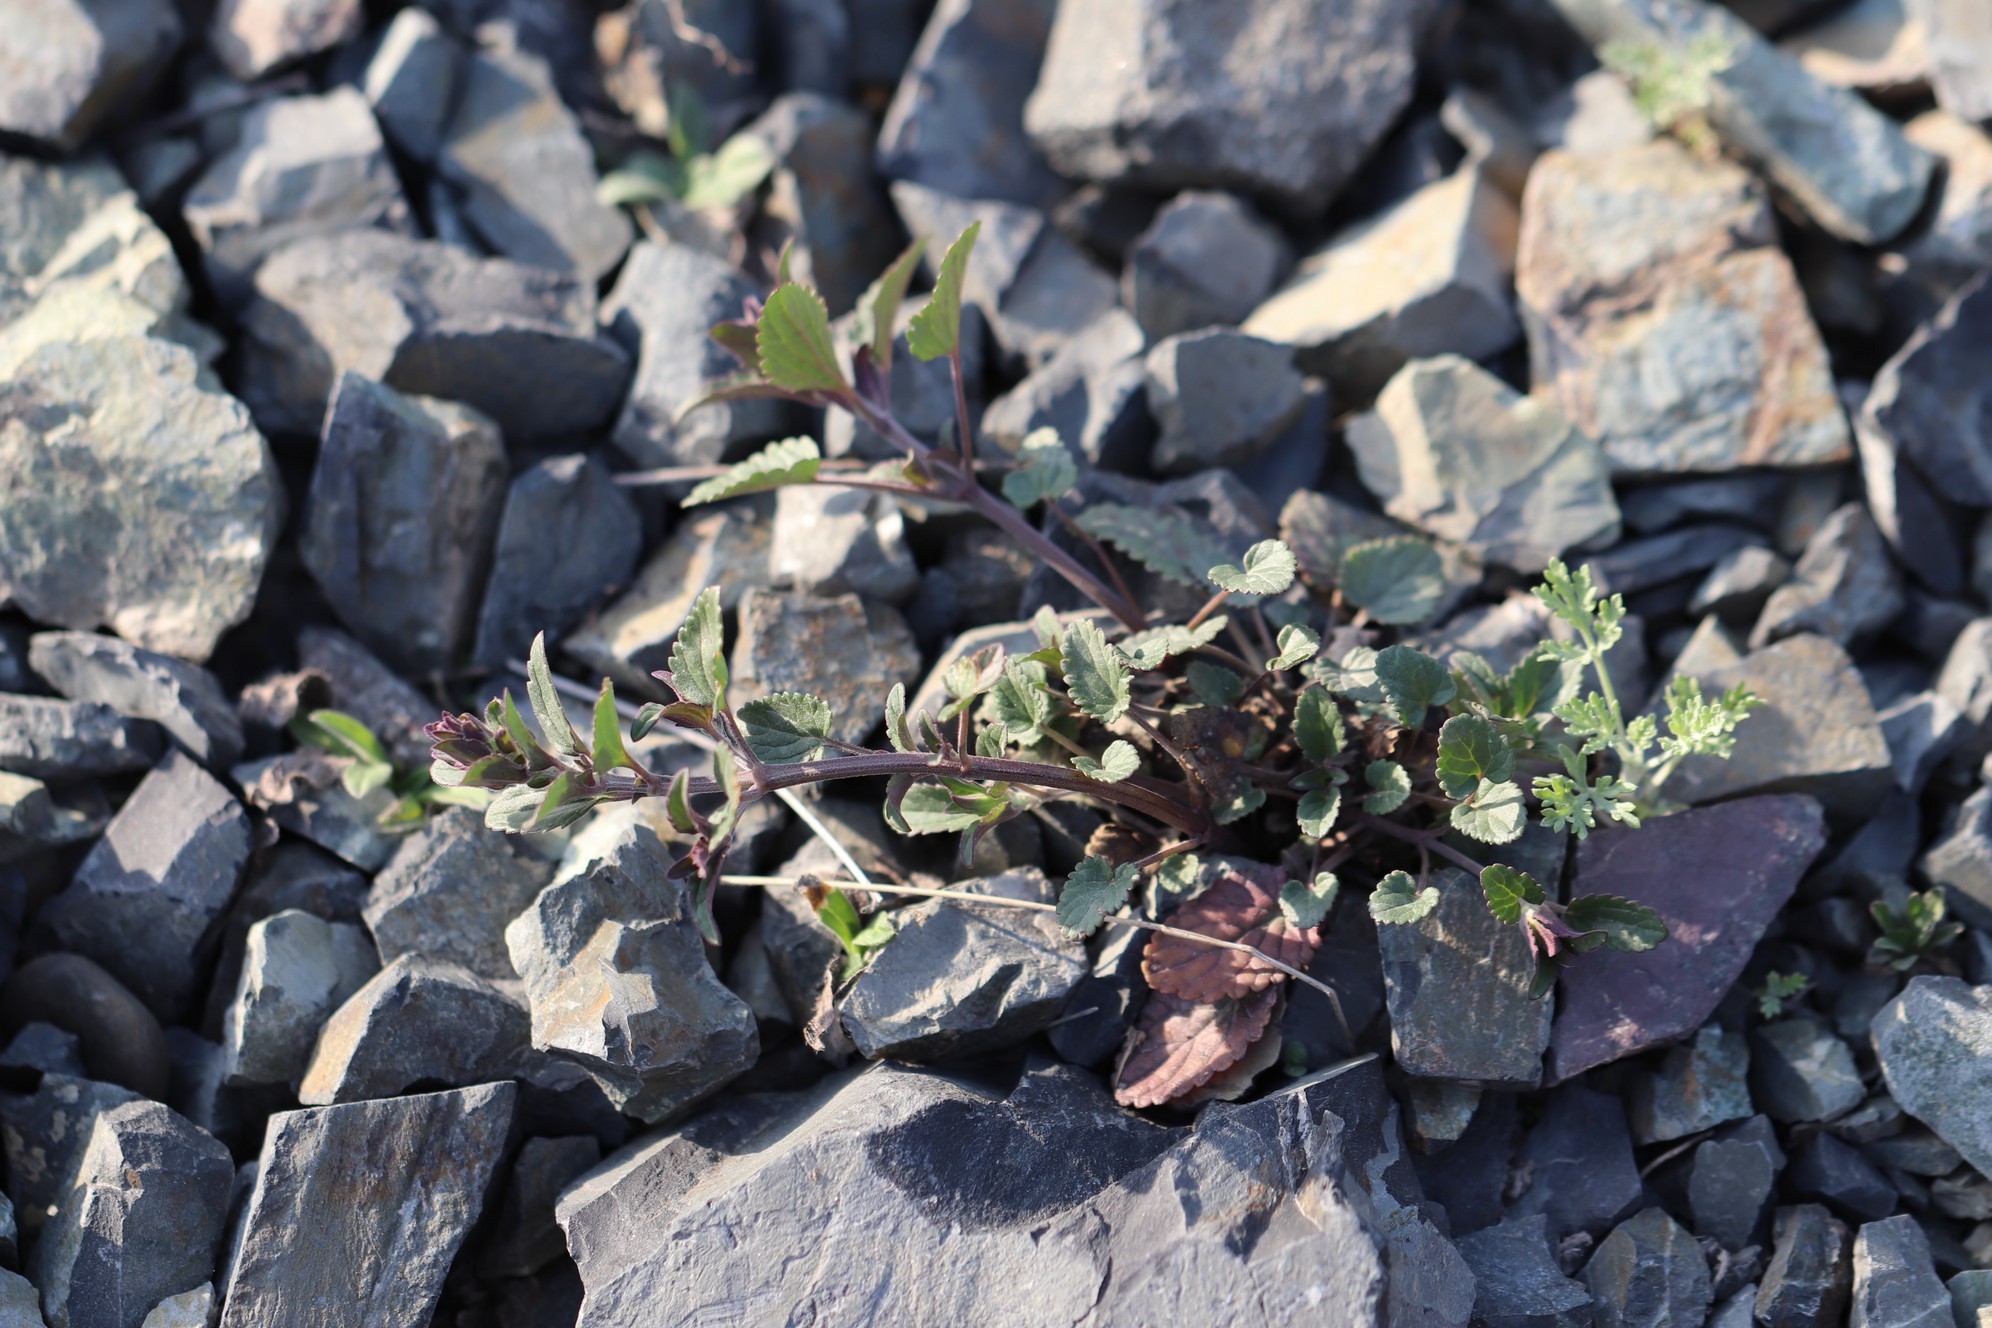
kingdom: Plantae
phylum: Tracheophyta
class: Magnoliopsida
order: Lamiales
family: Lamiaceae
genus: Dracocephalum
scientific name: Dracocephalum nutans
